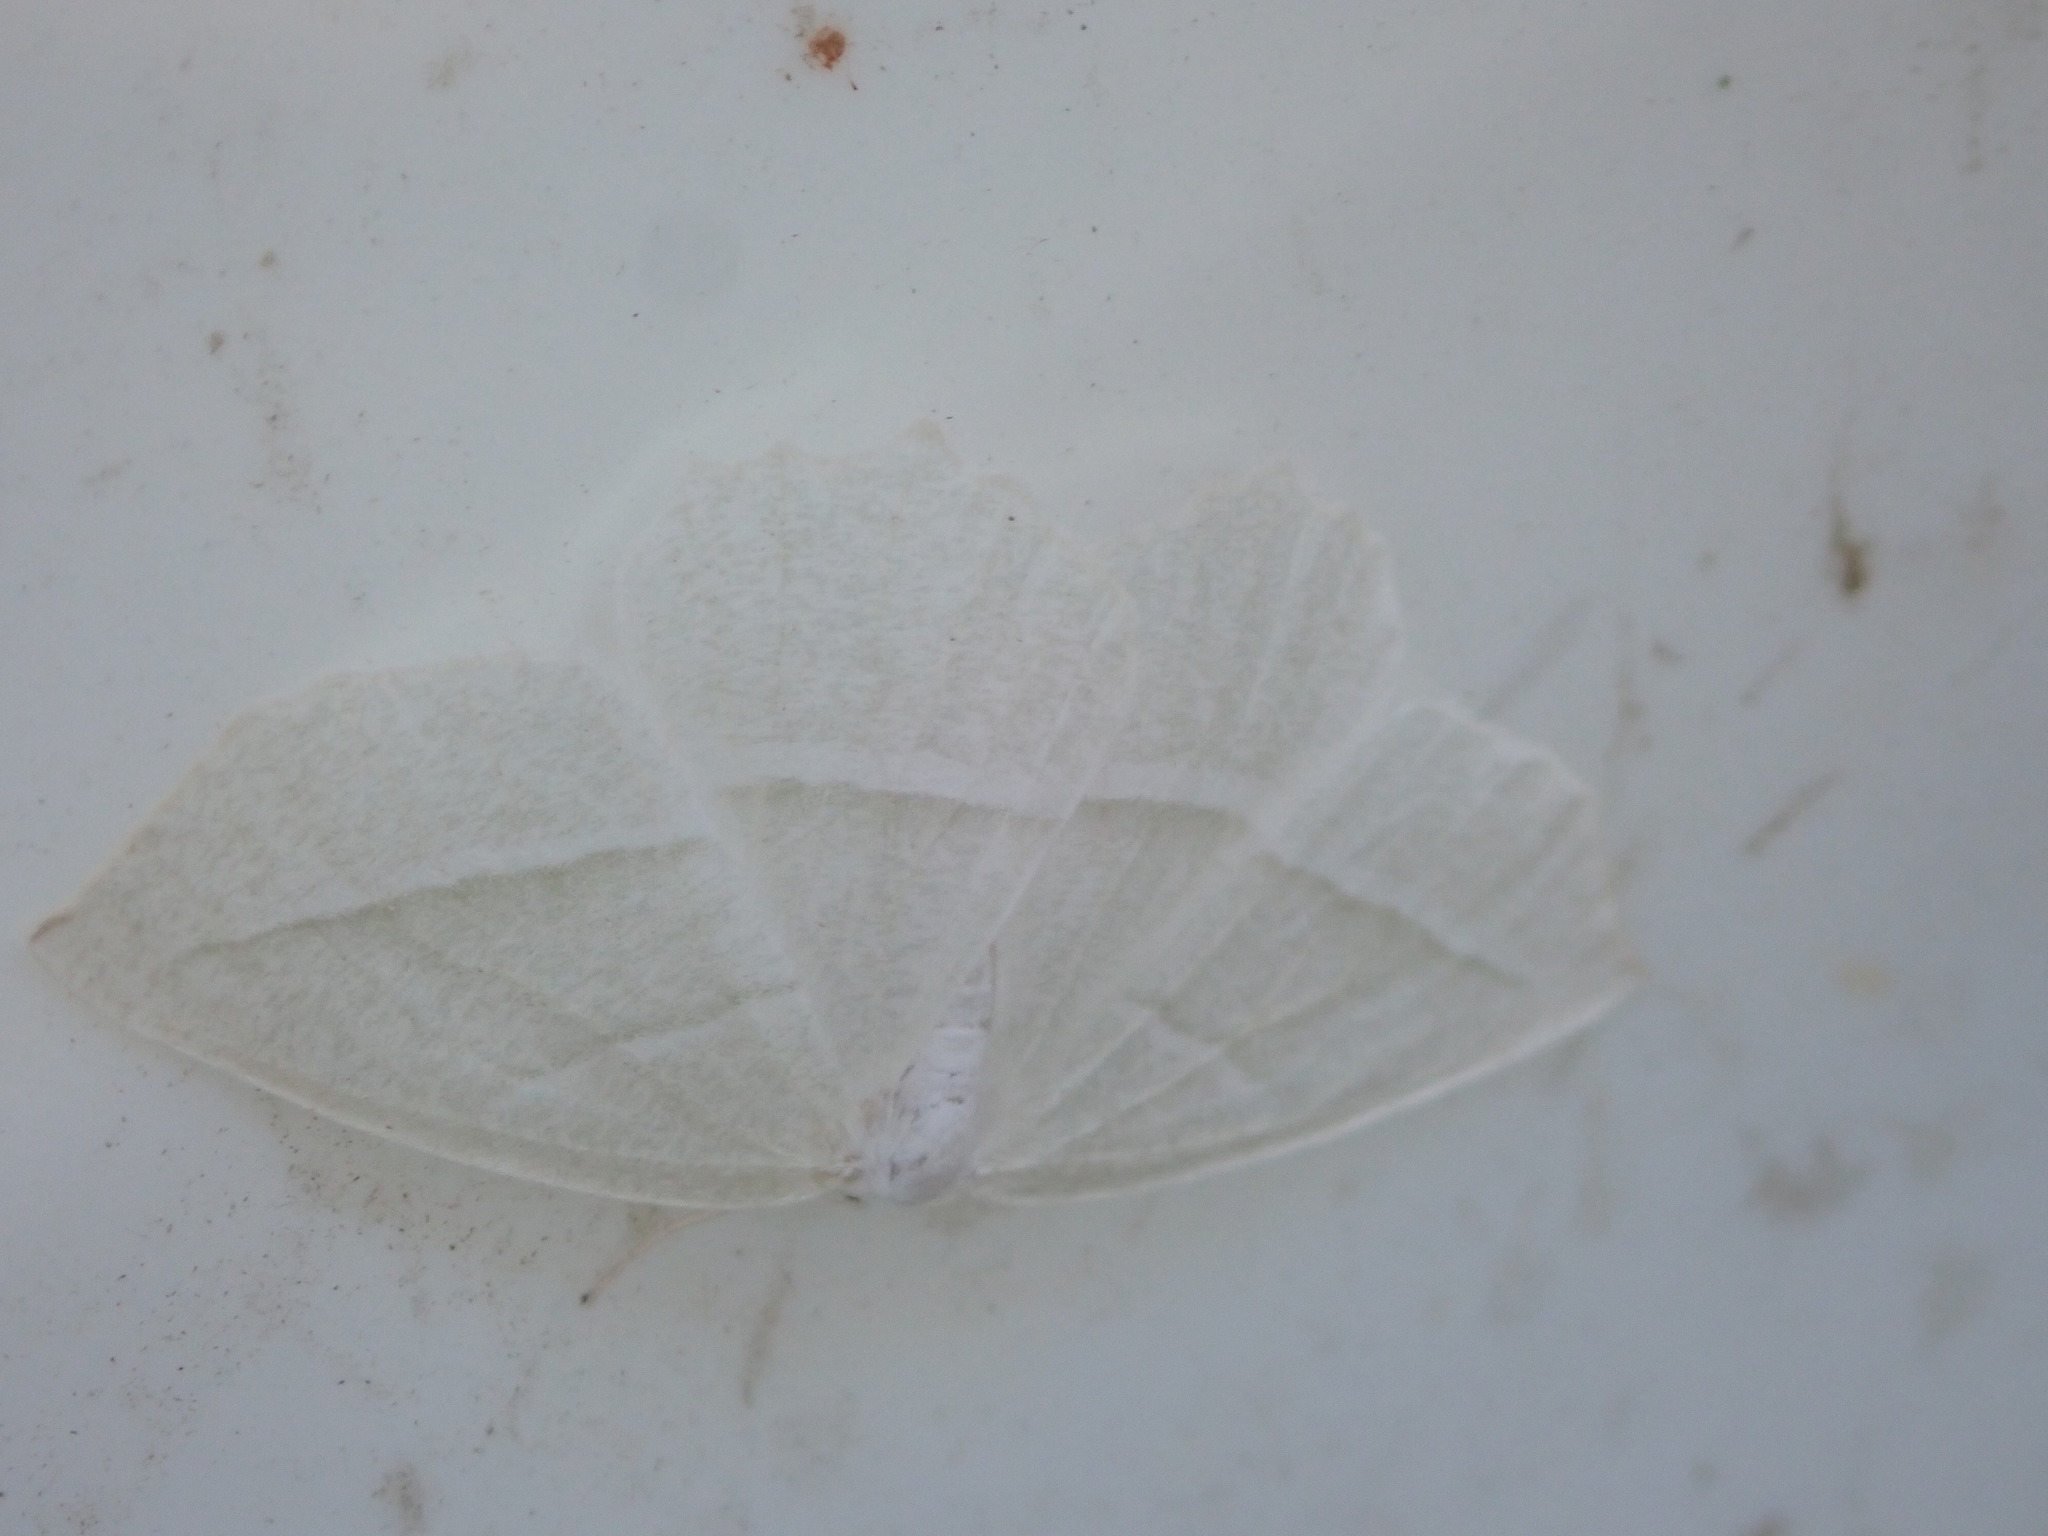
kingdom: Animalia
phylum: Arthropoda
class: Insecta
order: Lepidoptera
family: Geometridae
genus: Campaea
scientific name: Campaea perlata
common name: Fringed looper
